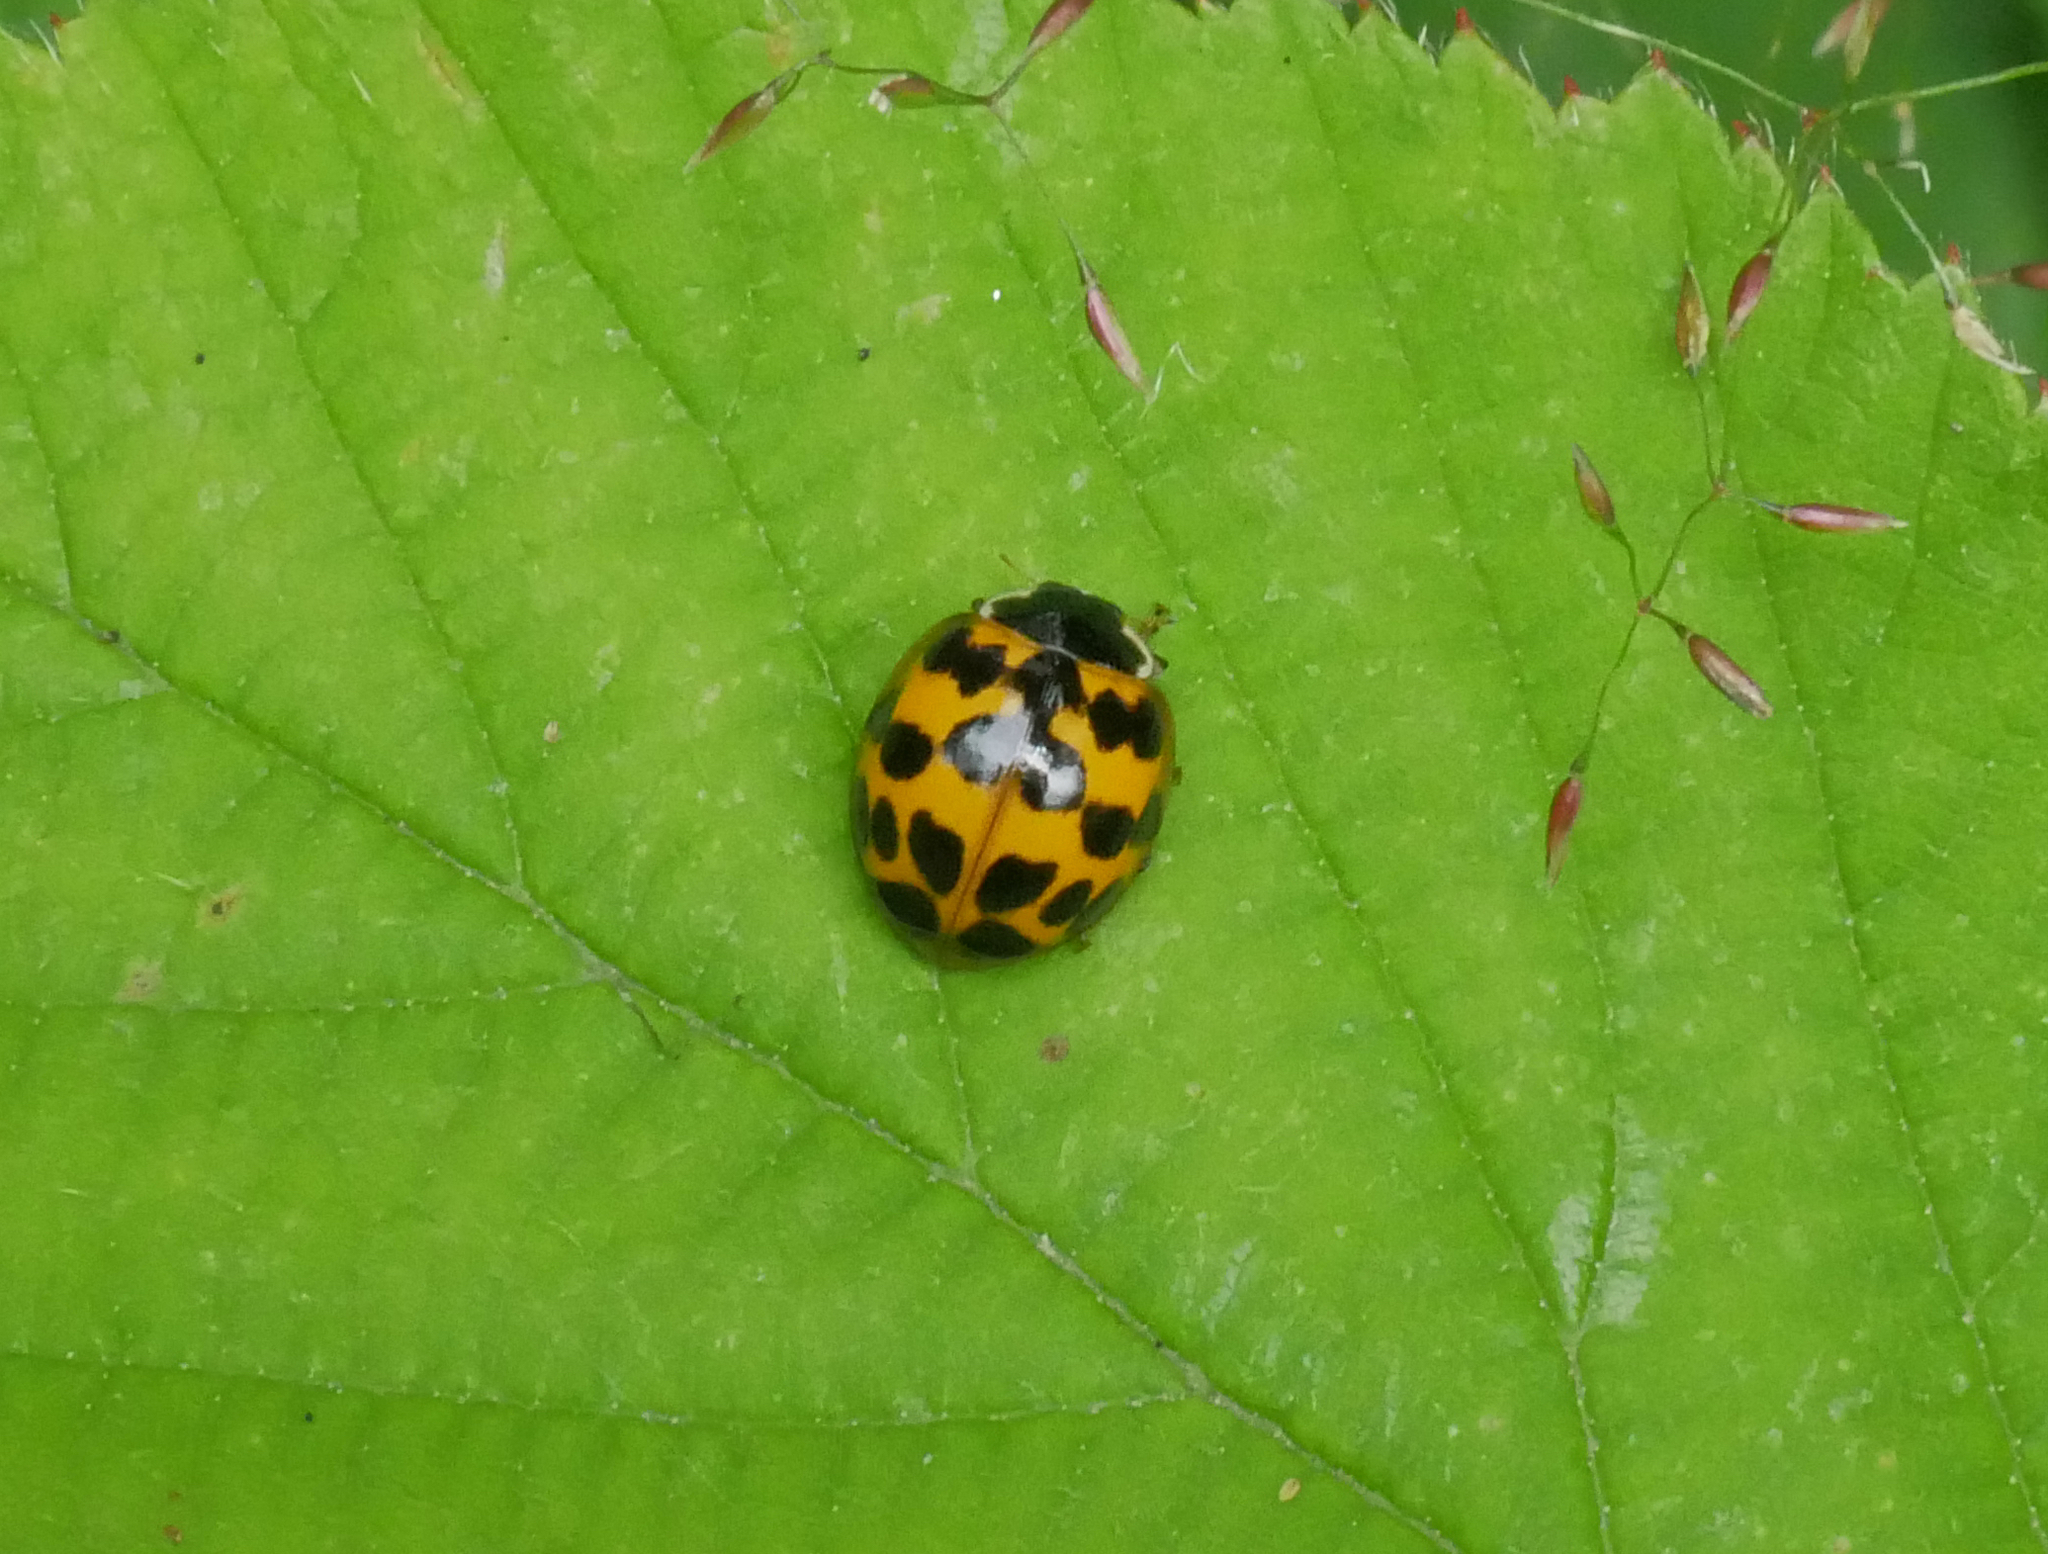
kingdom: Animalia
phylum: Arthropoda
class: Insecta
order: Coleoptera
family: Coccinellidae
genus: Harmonia
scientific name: Harmonia axyridis
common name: Harlequin ladybird
